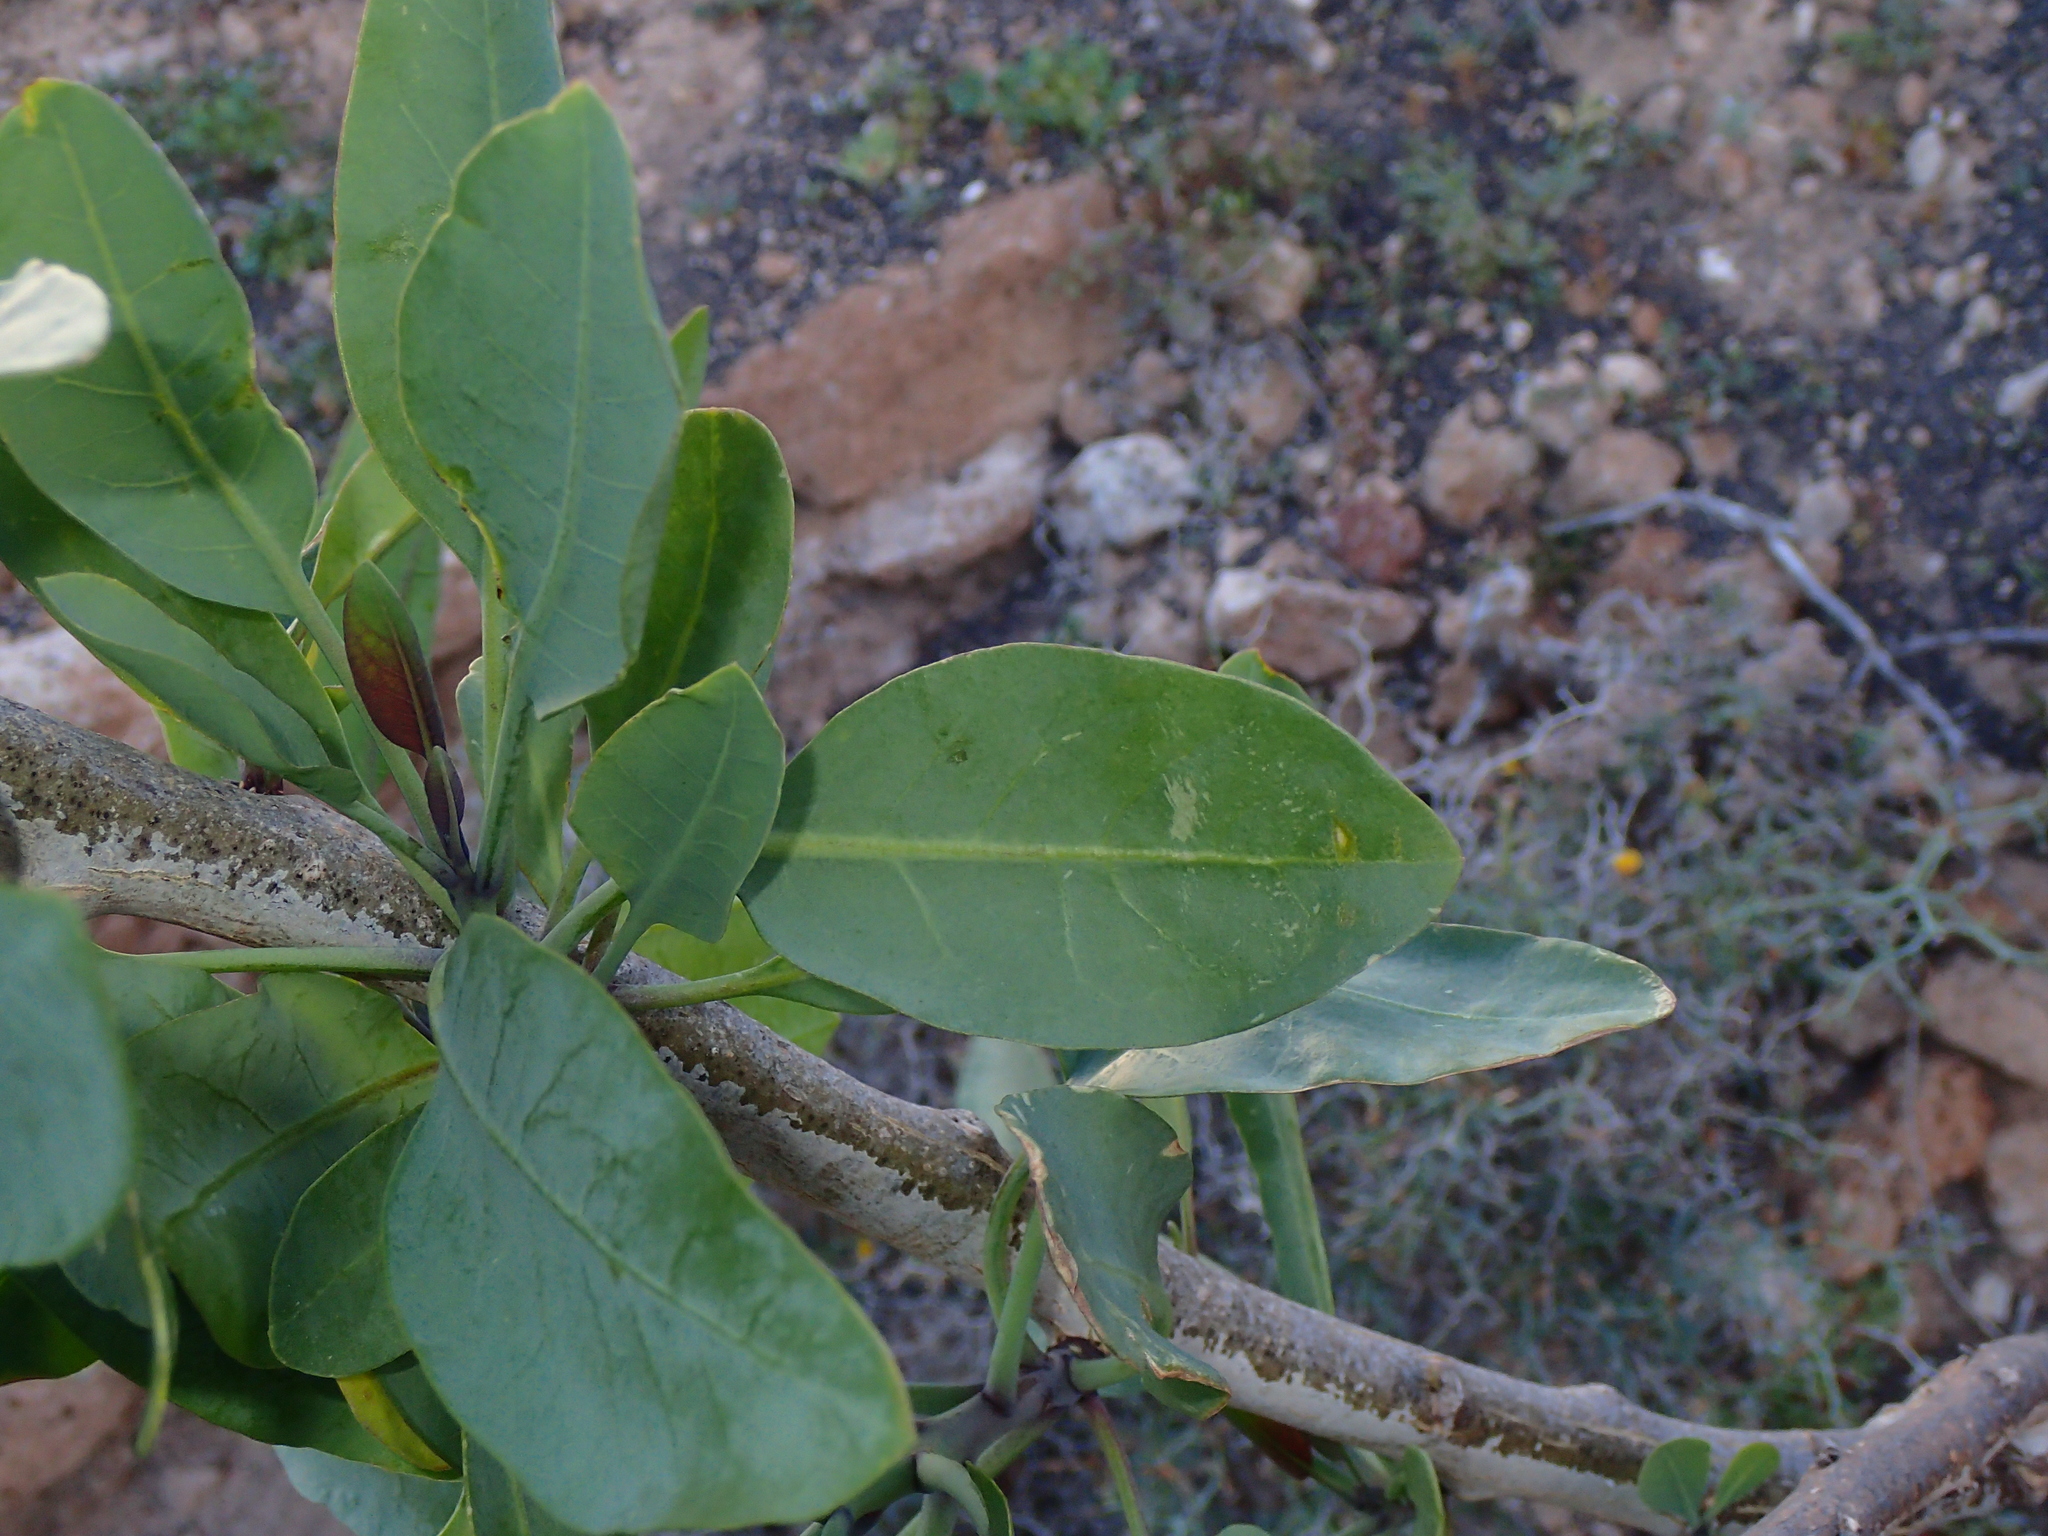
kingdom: Plantae
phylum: Tracheophyta
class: Magnoliopsida
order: Solanales
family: Solanaceae
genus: Nicotiana
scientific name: Nicotiana glauca
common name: Tree tobacco
